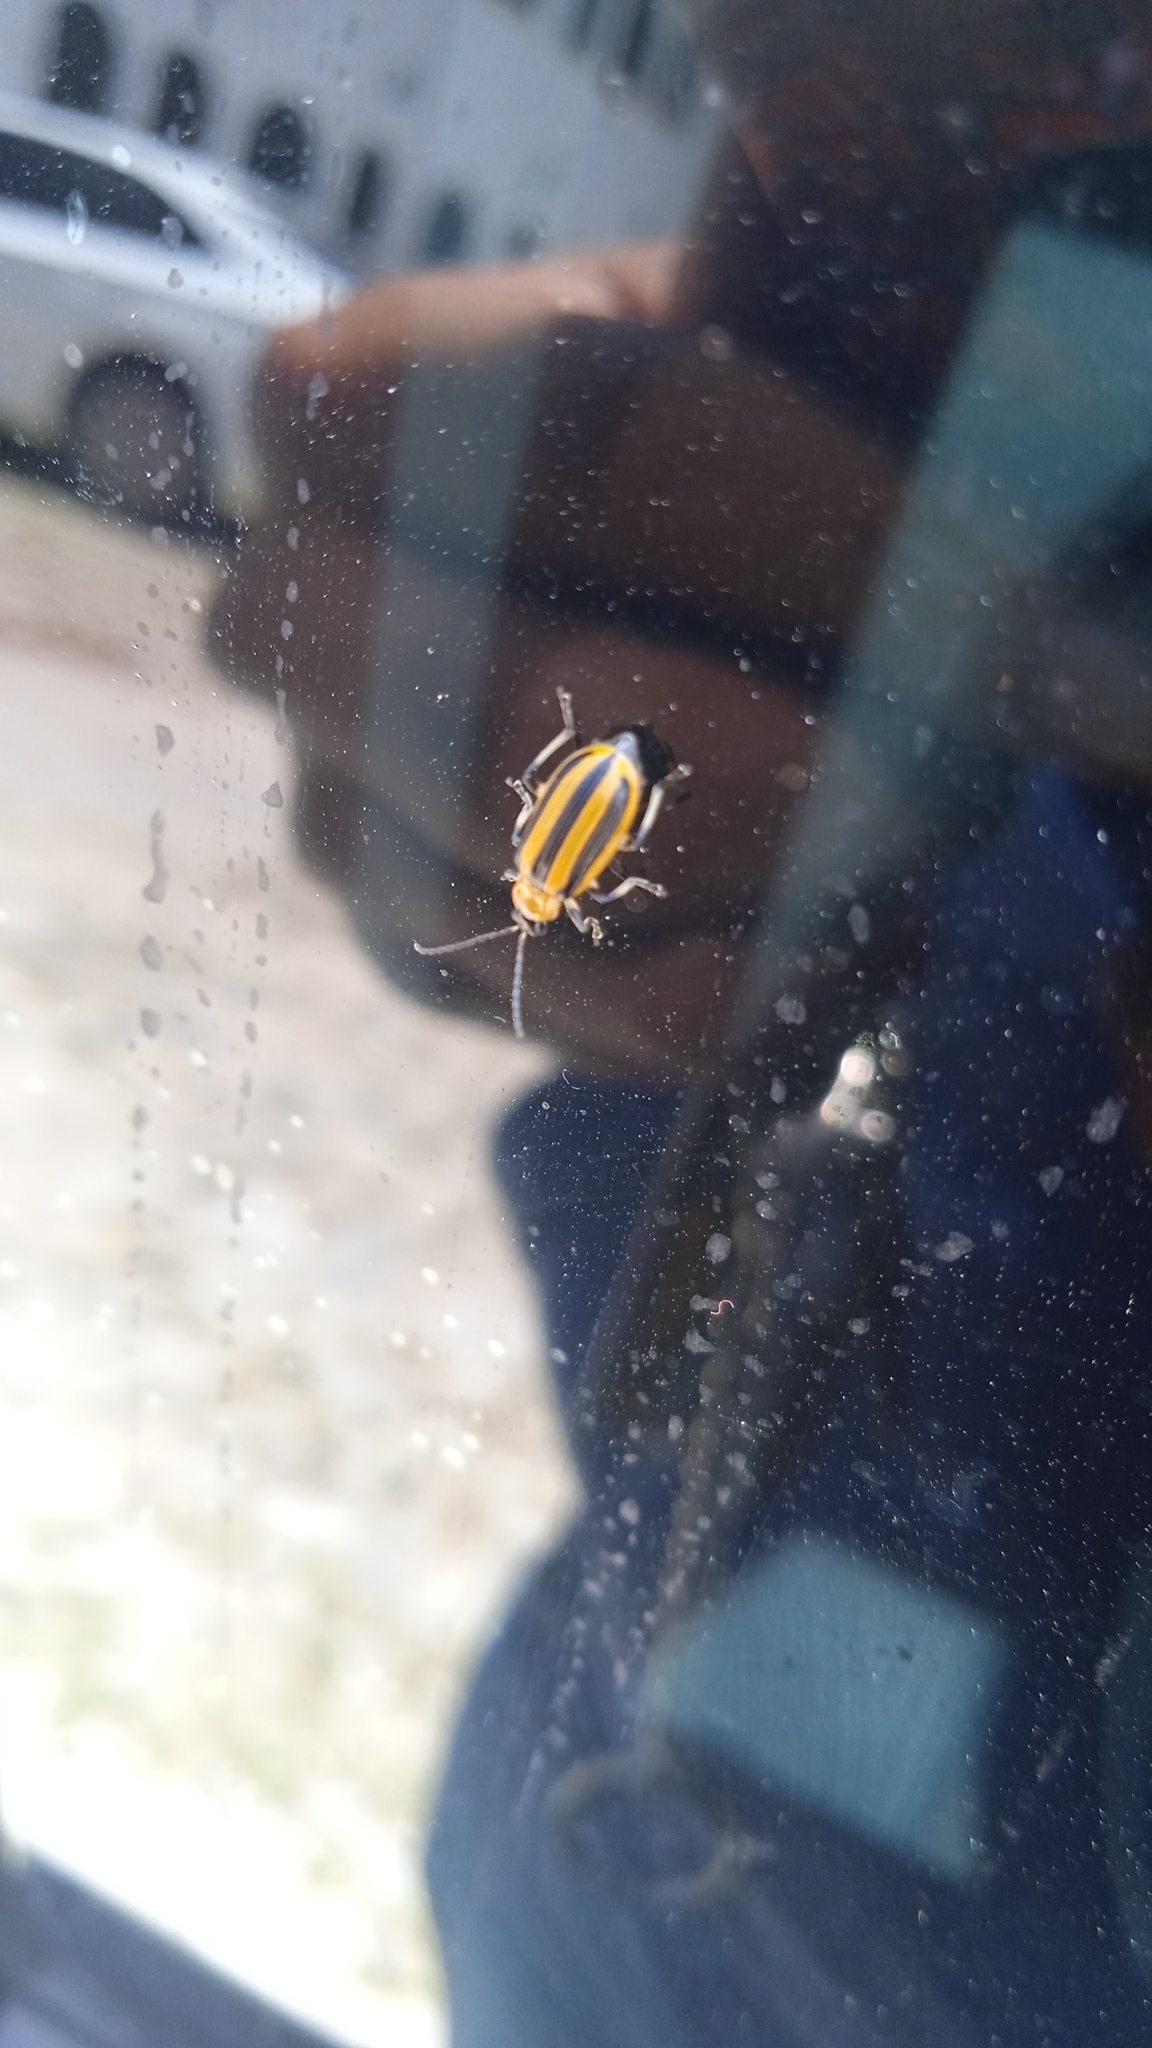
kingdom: Animalia
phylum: Arthropoda
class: Insecta
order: Coleoptera
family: Chrysomelidae
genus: Acalymma
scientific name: Acalymma vittatum
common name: Striped cucumber beetle
